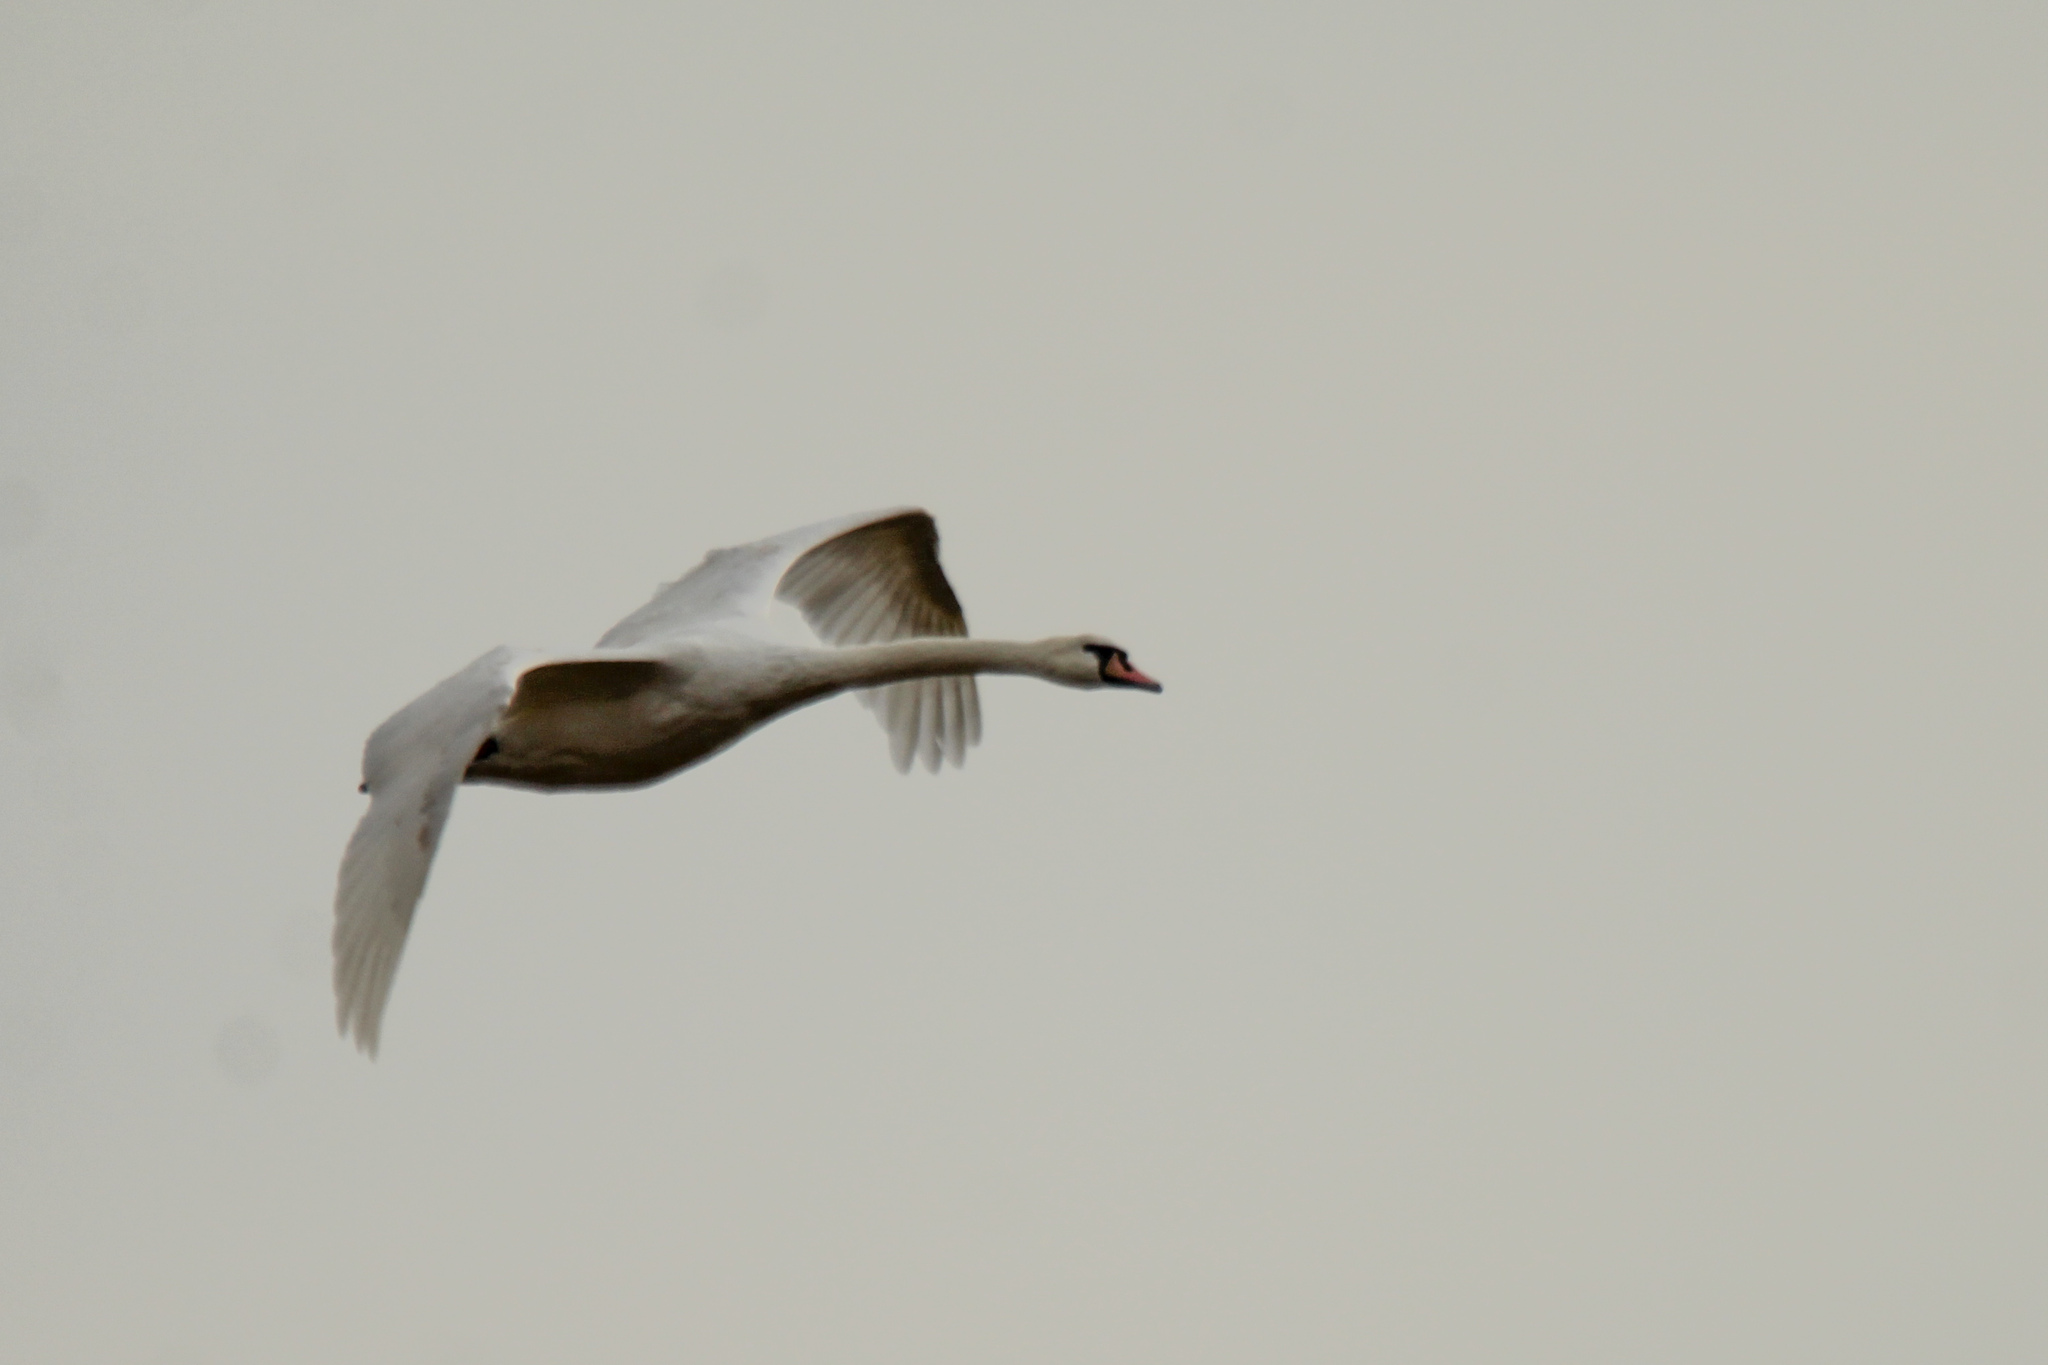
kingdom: Animalia
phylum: Chordata
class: Aves
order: Anseriformes
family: Anatidae
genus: Cygnus
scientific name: Cygnus olor
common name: Mute swan
